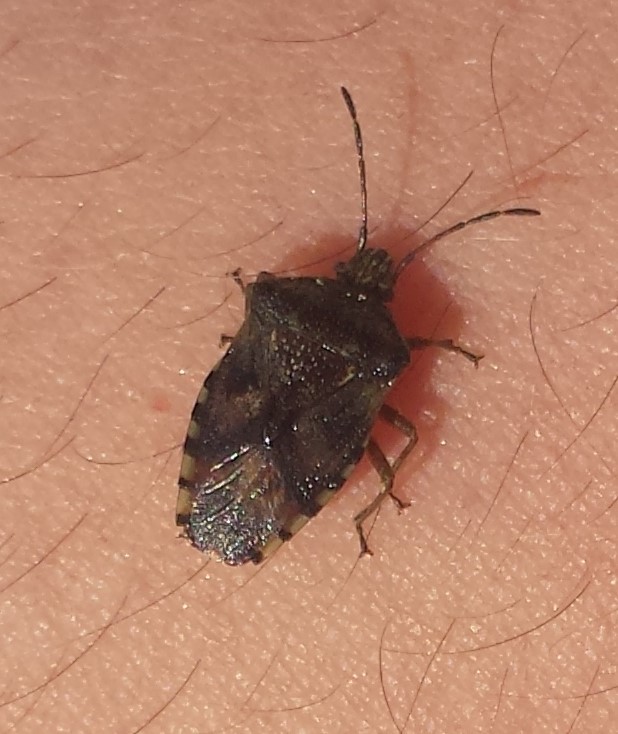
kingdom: Animalia
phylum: Arthropoda
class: Insecta
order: Hemiptera
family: Acanthosomatidae
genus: Elasmucha
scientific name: Elasmucha lateralis
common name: Shield bug
